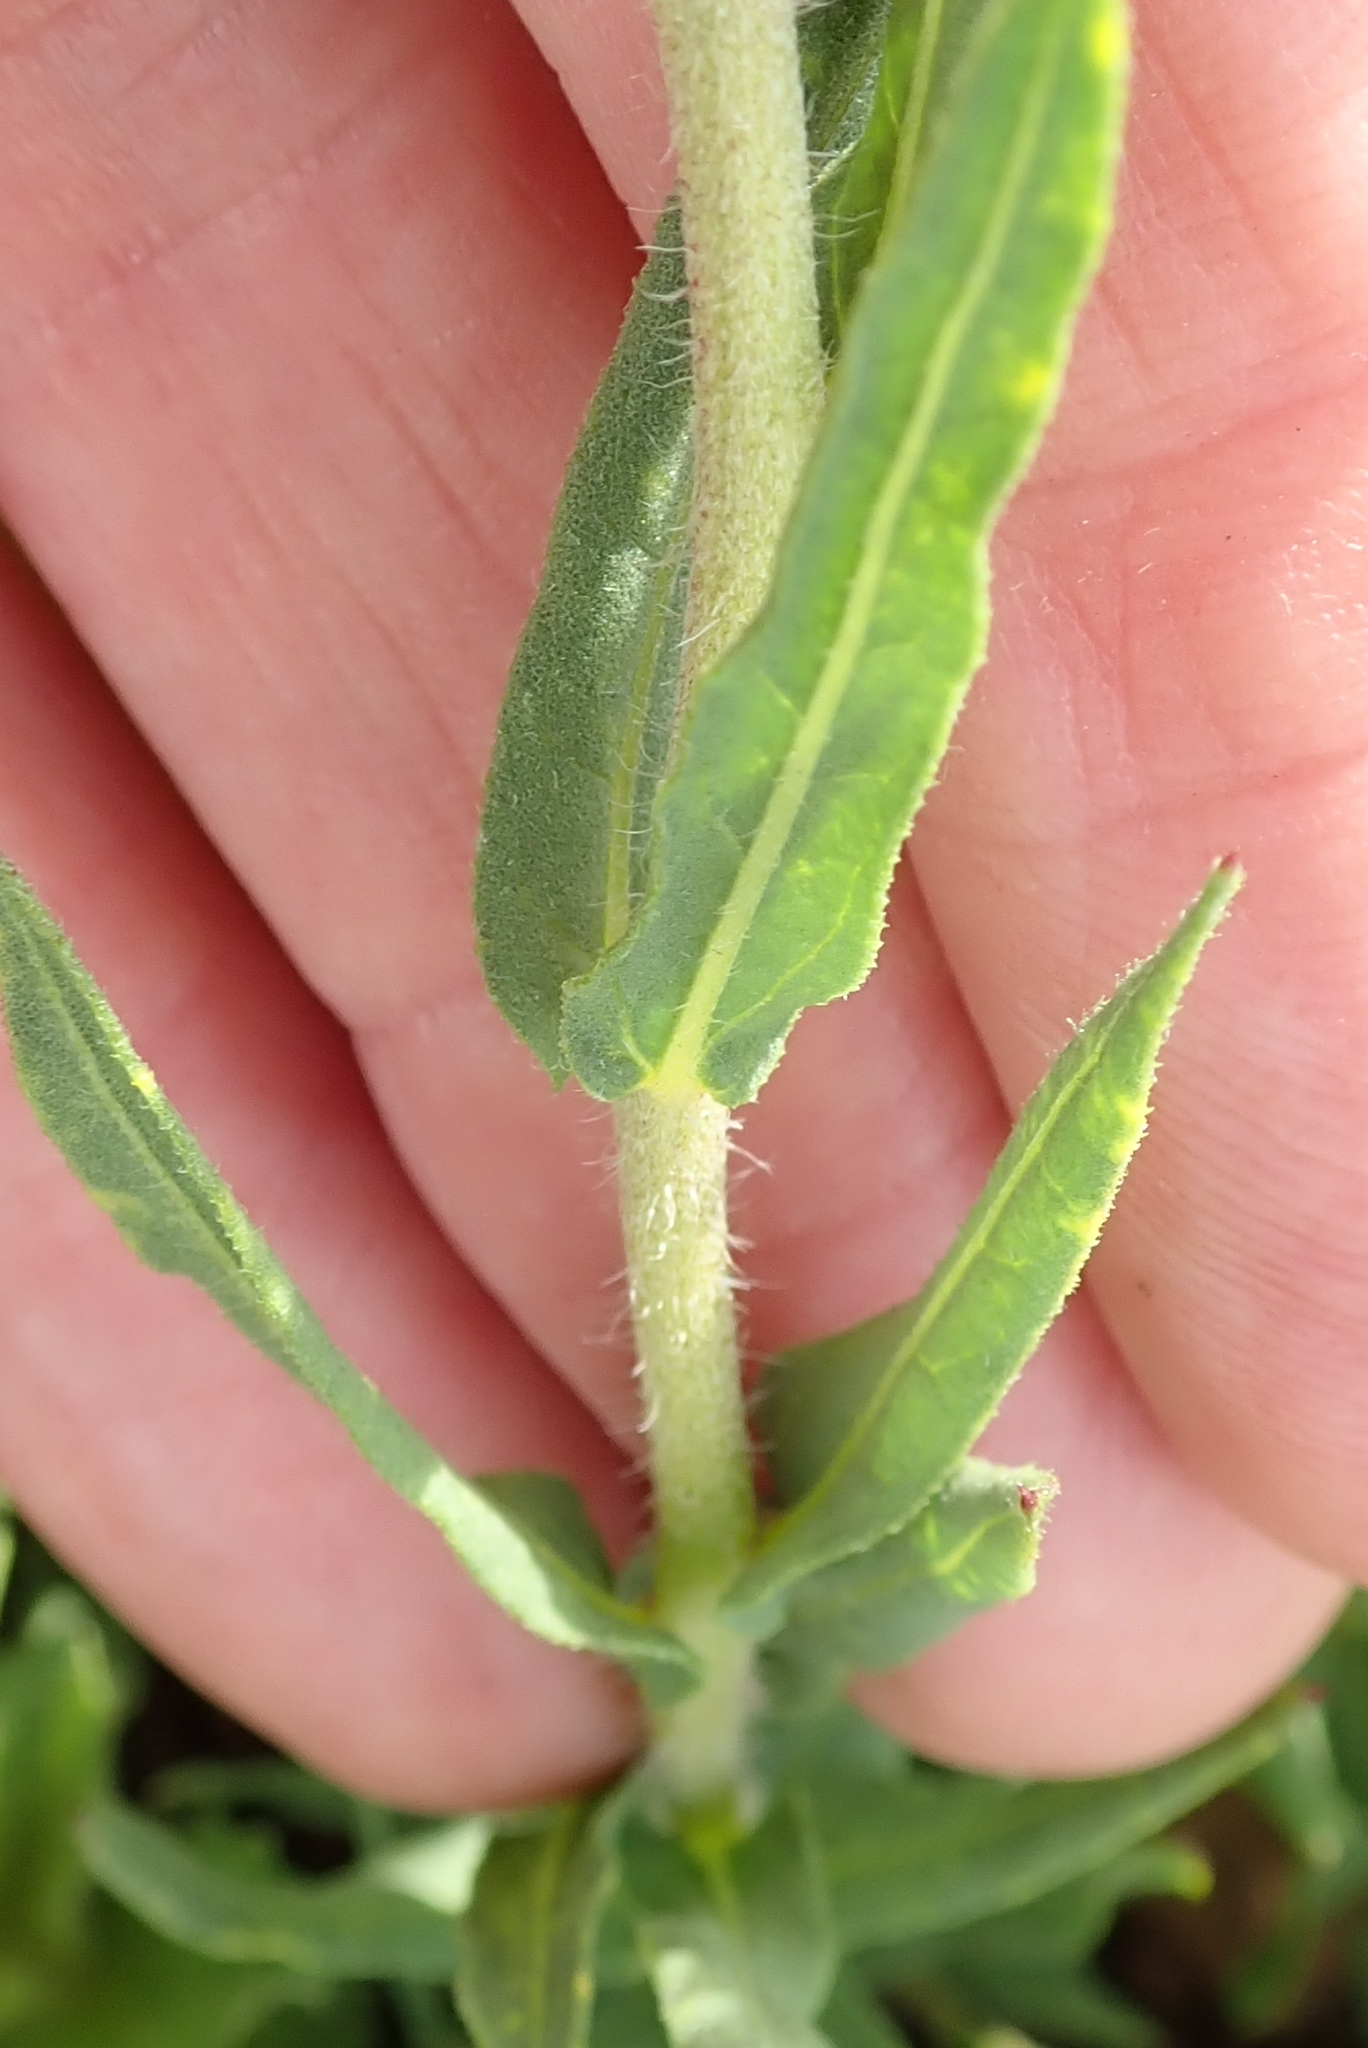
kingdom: Plantae
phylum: Tracheophyta
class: Magnoliopsida
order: Asterales
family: Asteraceae
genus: Pseudopegolettia
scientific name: Pseudopegolettia tenella
